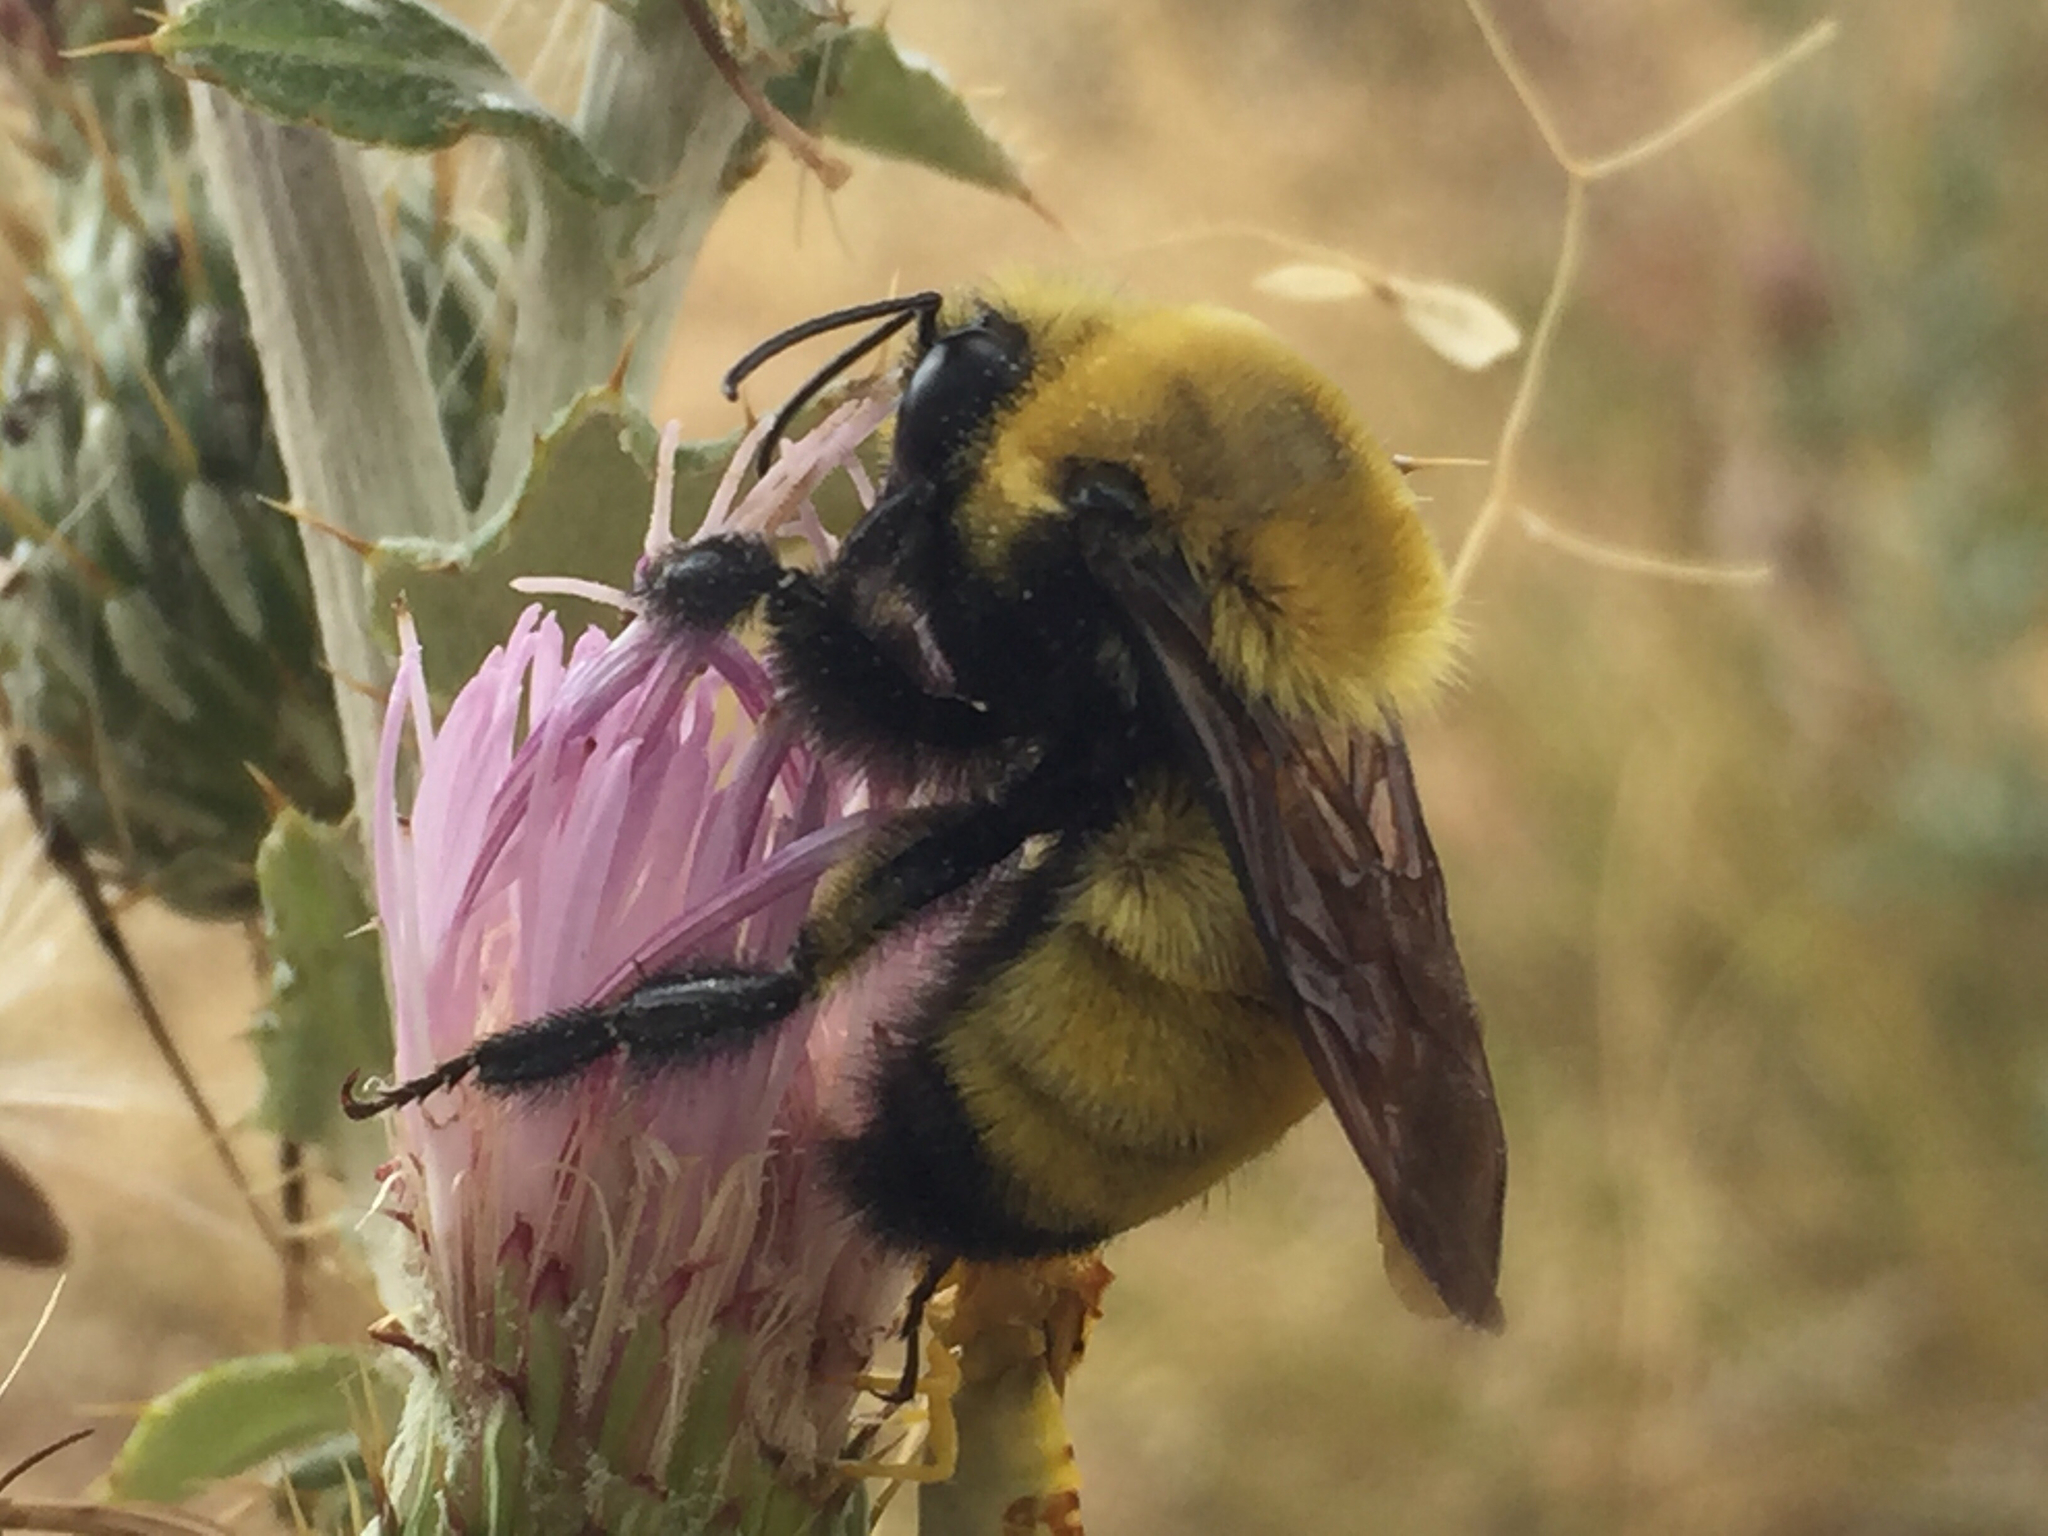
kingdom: Animalia
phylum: Arthropoda
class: Insecta
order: Hymenoptera
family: Apidae
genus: Bombus
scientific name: Bombus morrisoni
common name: Morrison bumble bee
